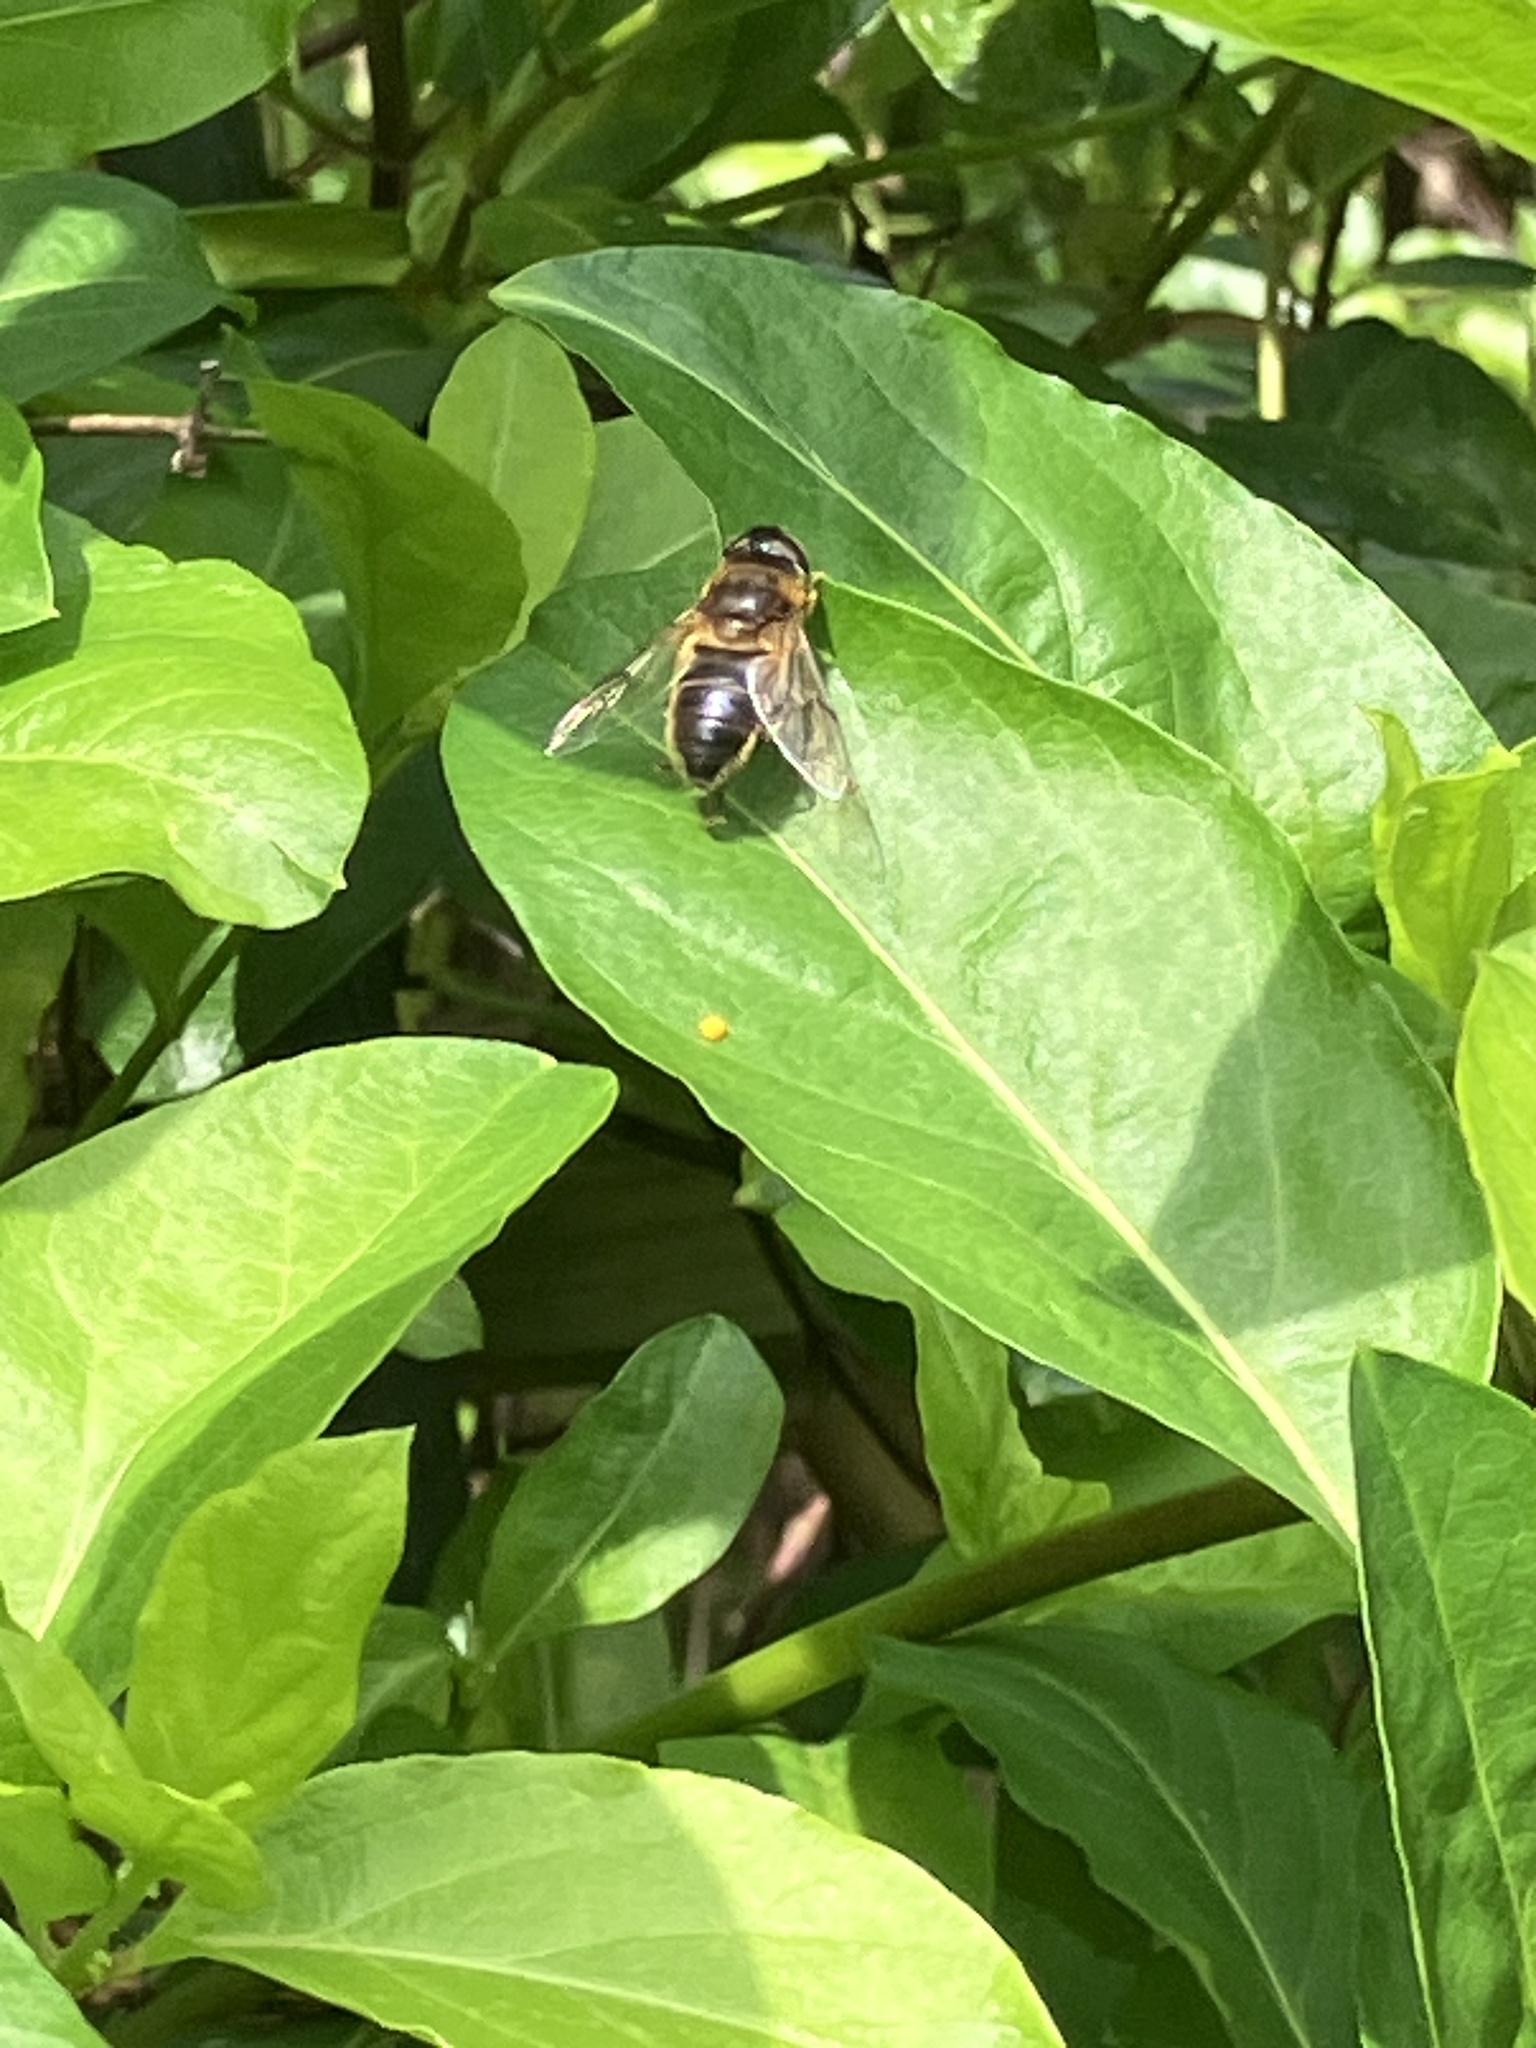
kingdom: Animalia
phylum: Arthropoda
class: Insecta
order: Diptera
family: Syrphidae
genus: Eristalis
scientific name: Eristalis
